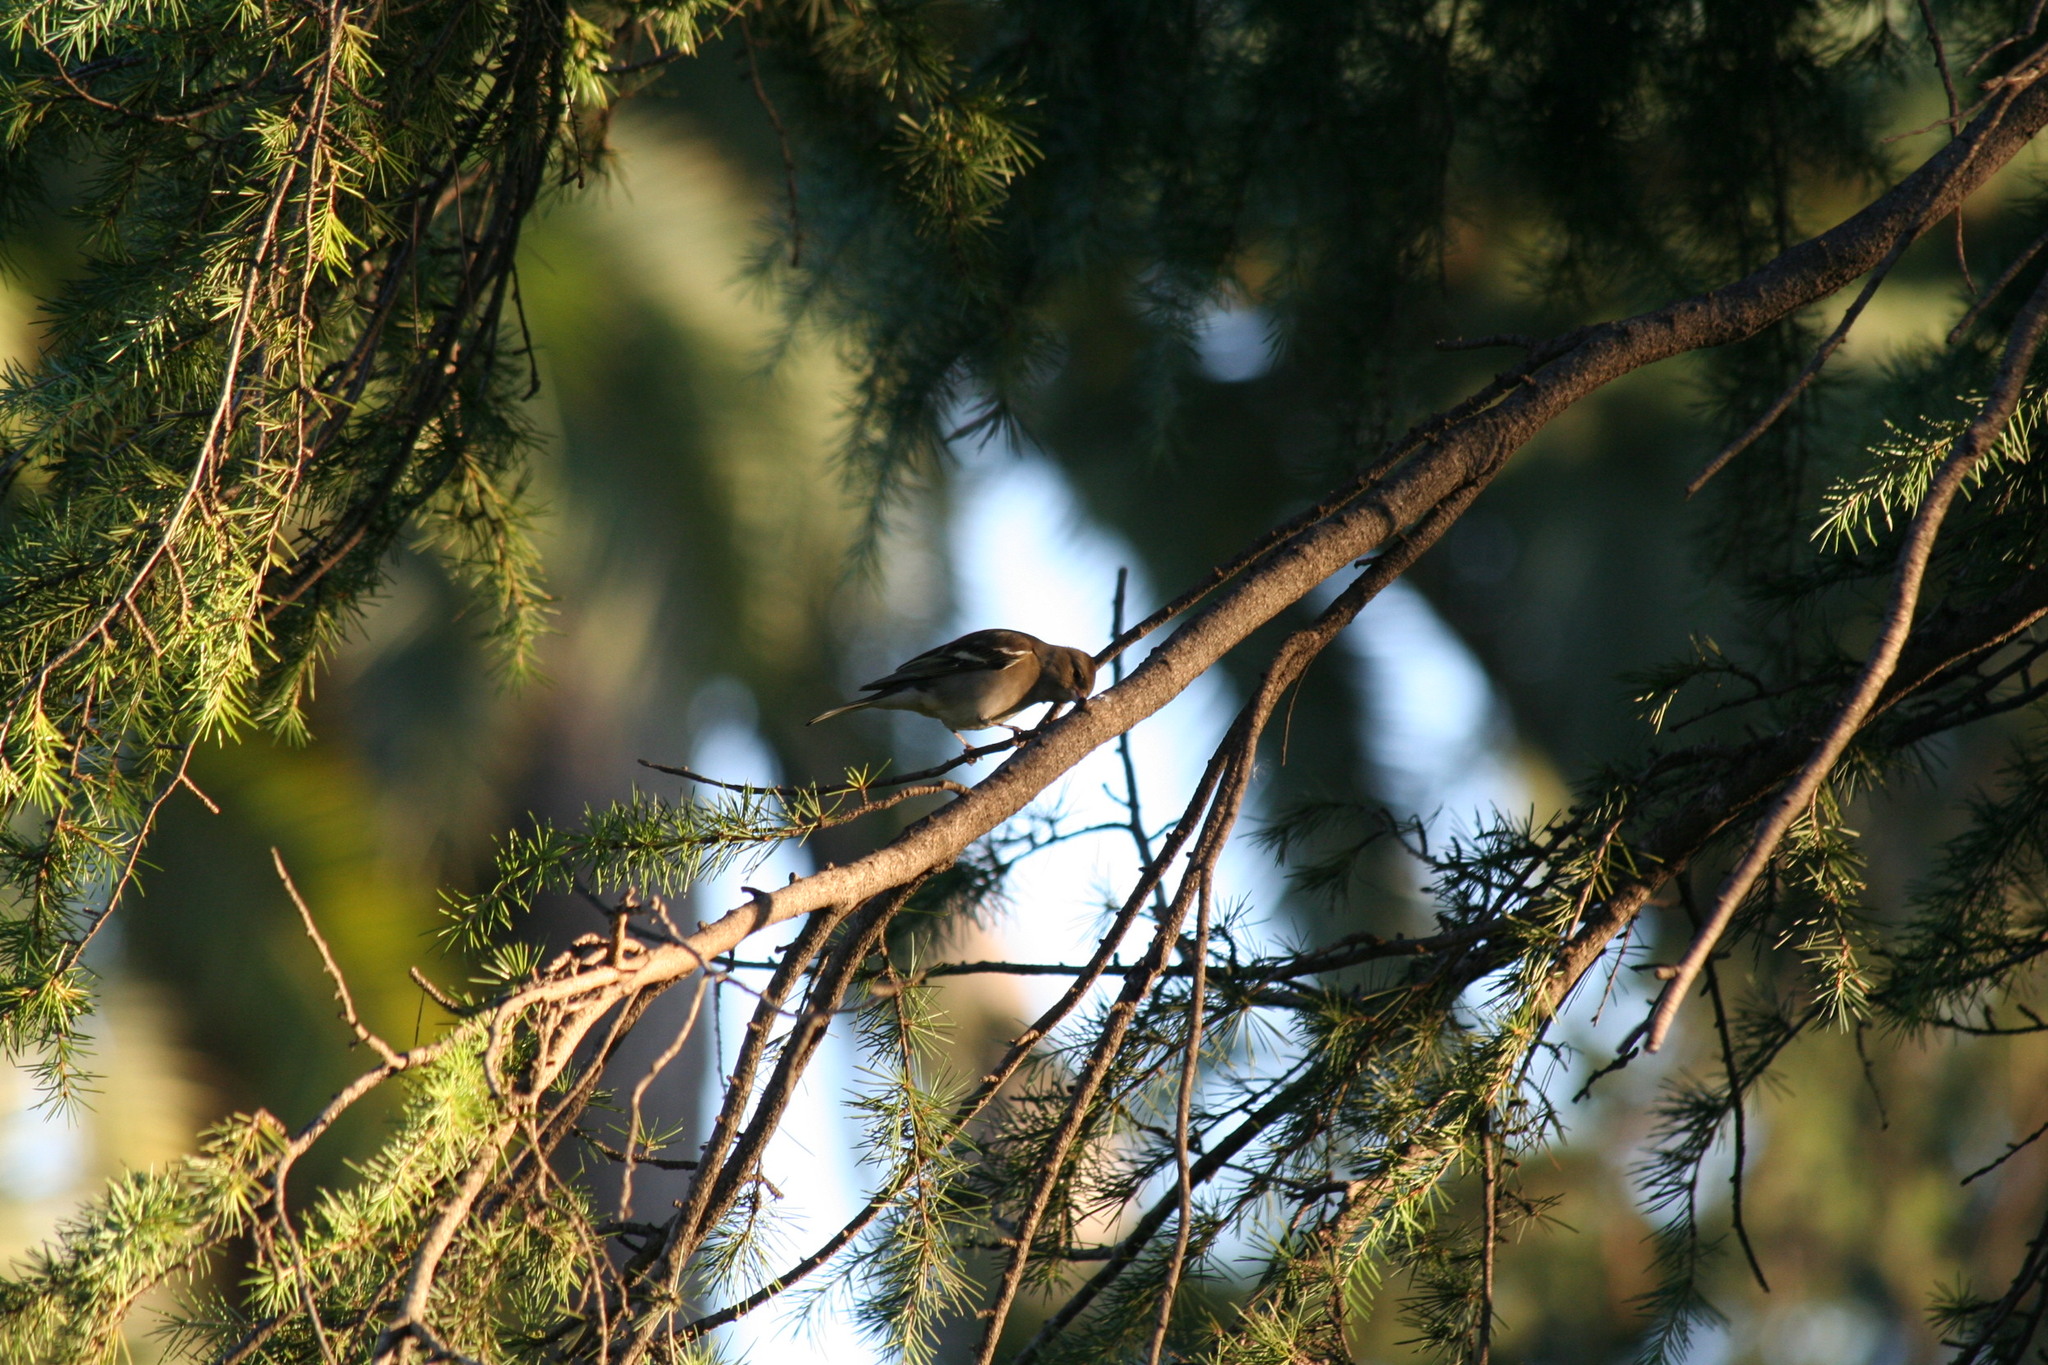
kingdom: Animalia
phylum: Chordata
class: Aves
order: Passeriformes
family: Fringillidae
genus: Fringilla
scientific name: Fringilla coelebs
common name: Common chaffinch
